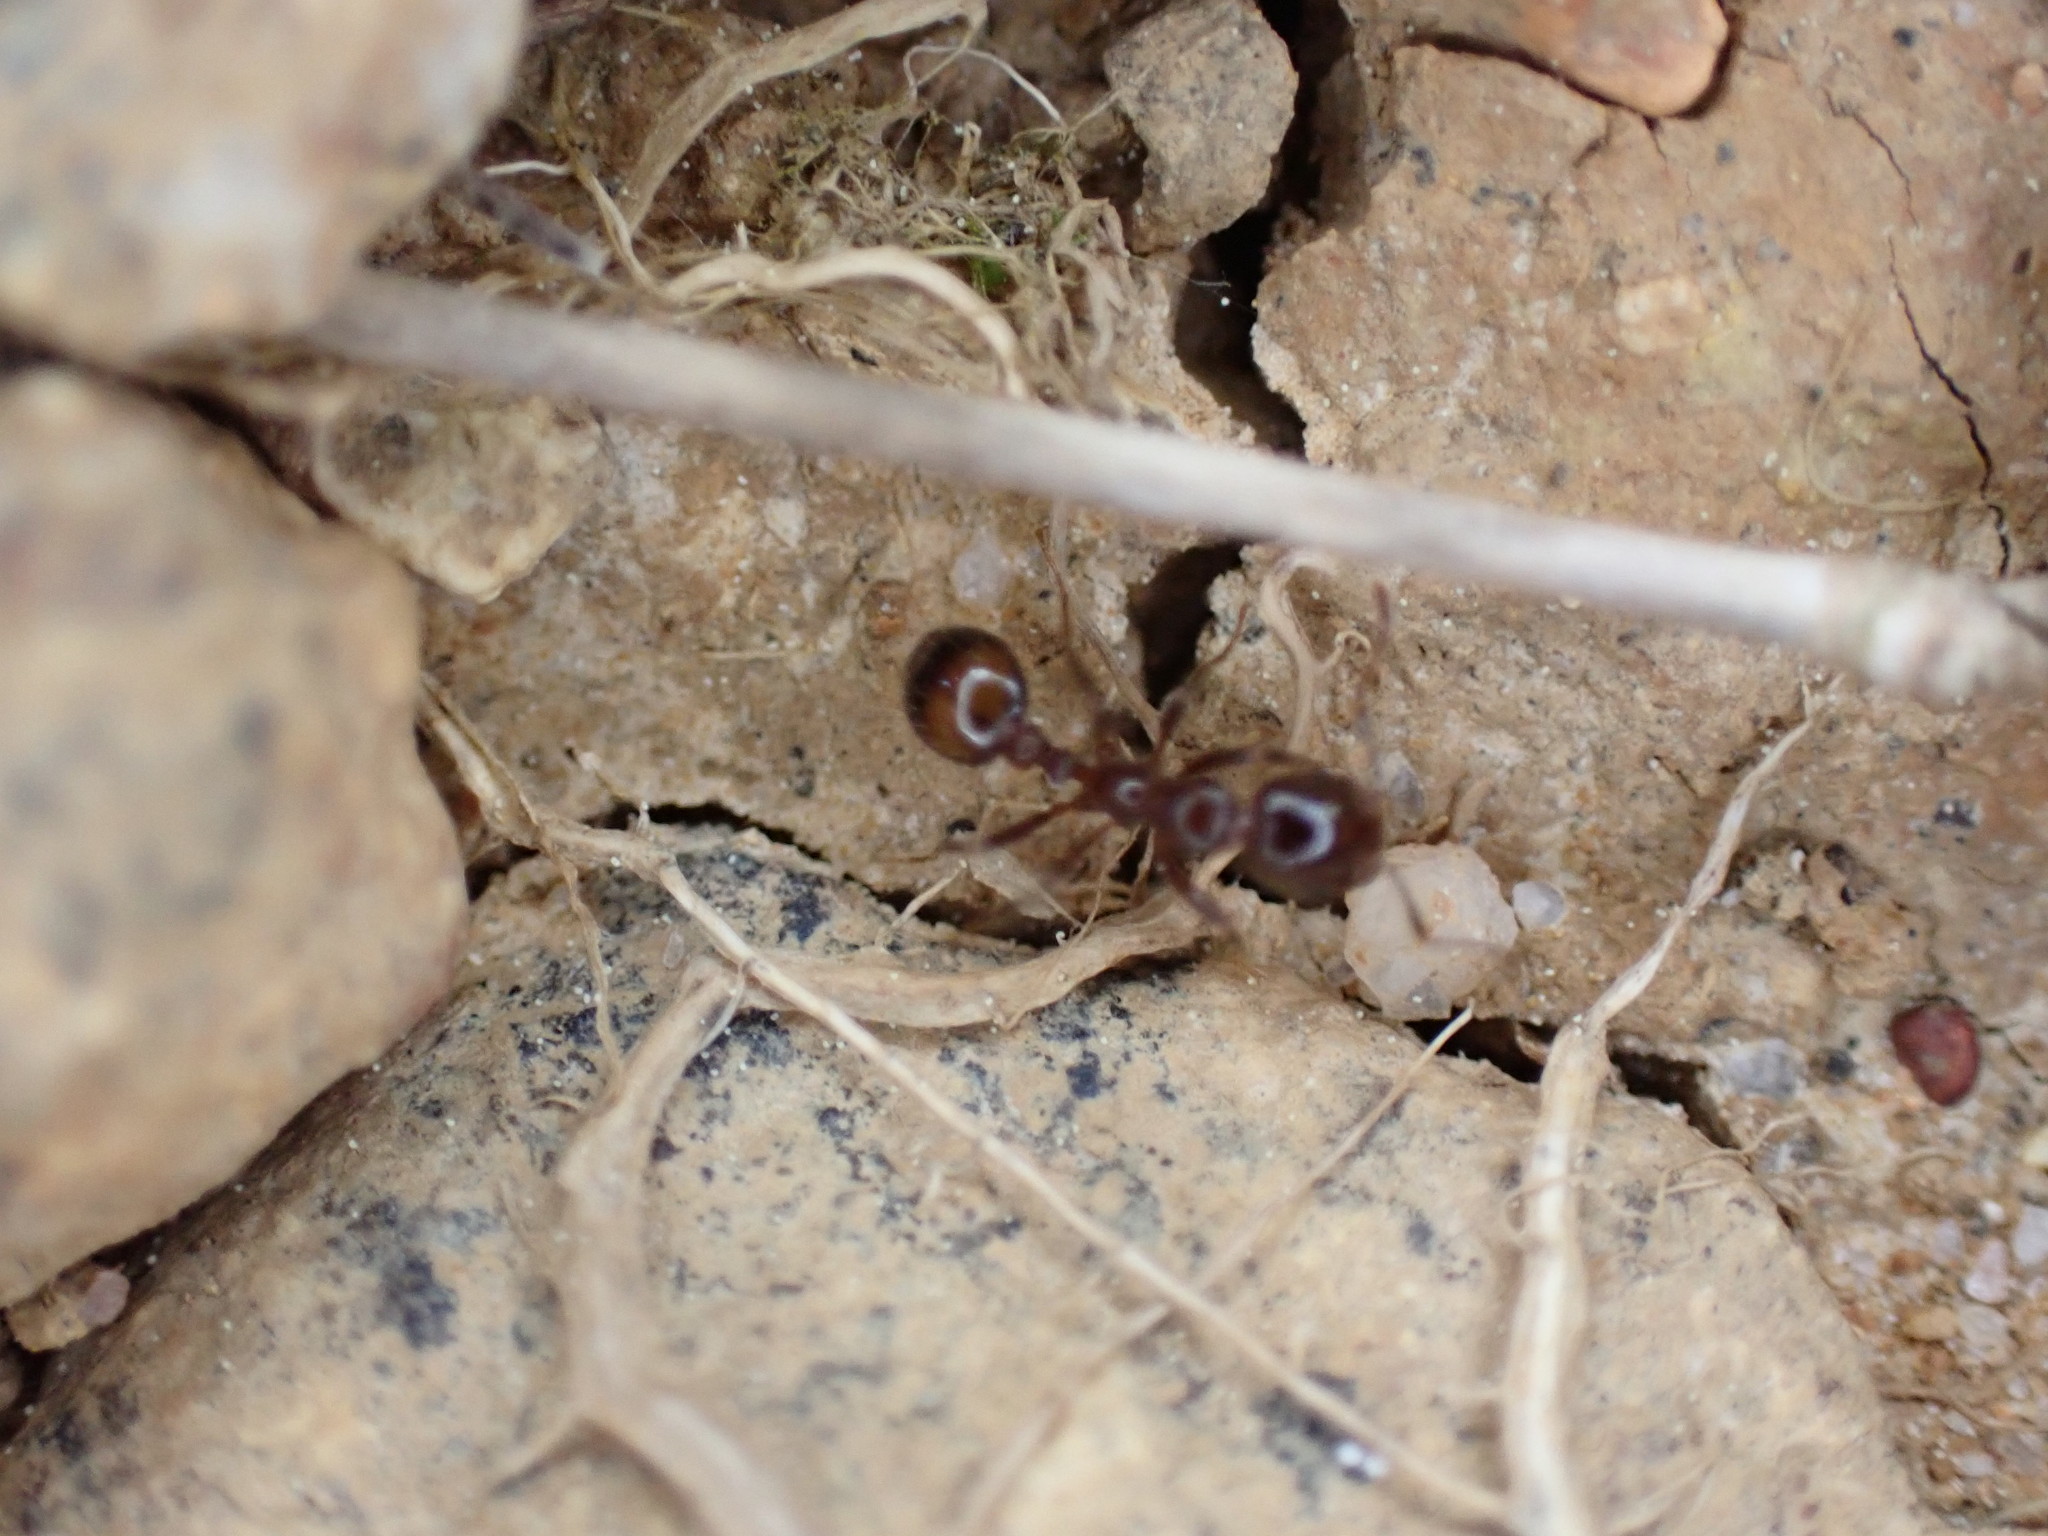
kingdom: Animalia
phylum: Arthropoda
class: Insecta
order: Hymenoptera
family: Formicidae
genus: Solenopsis
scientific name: Solenopsis
